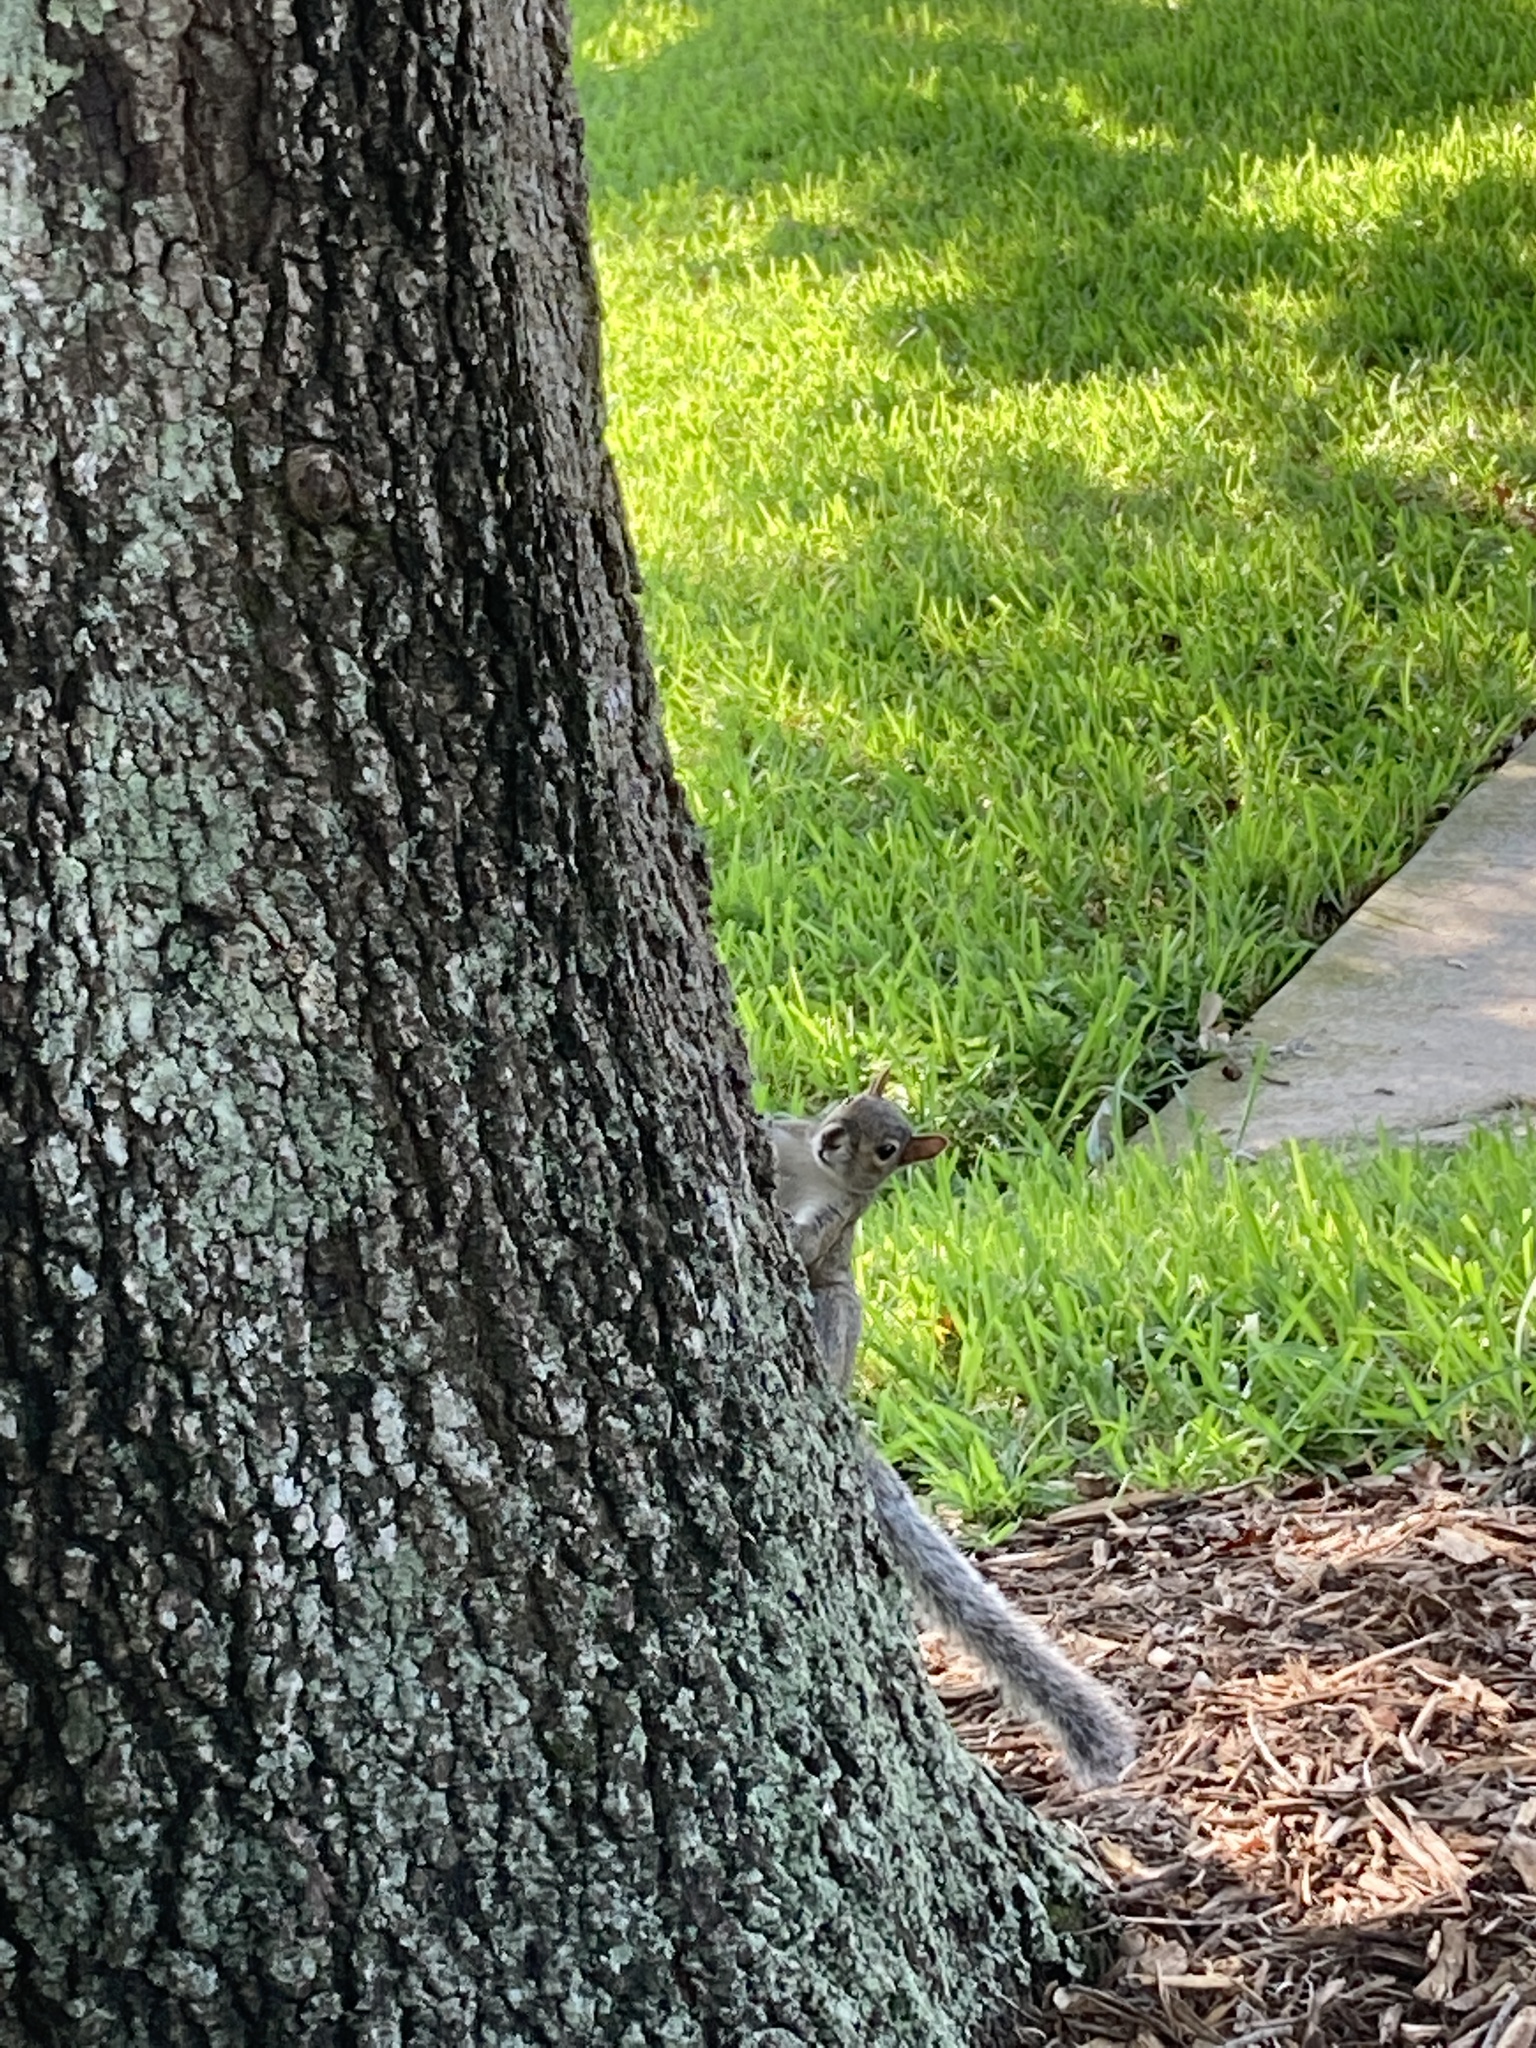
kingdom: Animalia
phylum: Chordata
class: Mammalia
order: Rodentia
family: Sciuridae
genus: Sciurus
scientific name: Sciurus carolinensis
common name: Eastern gray squirrel
